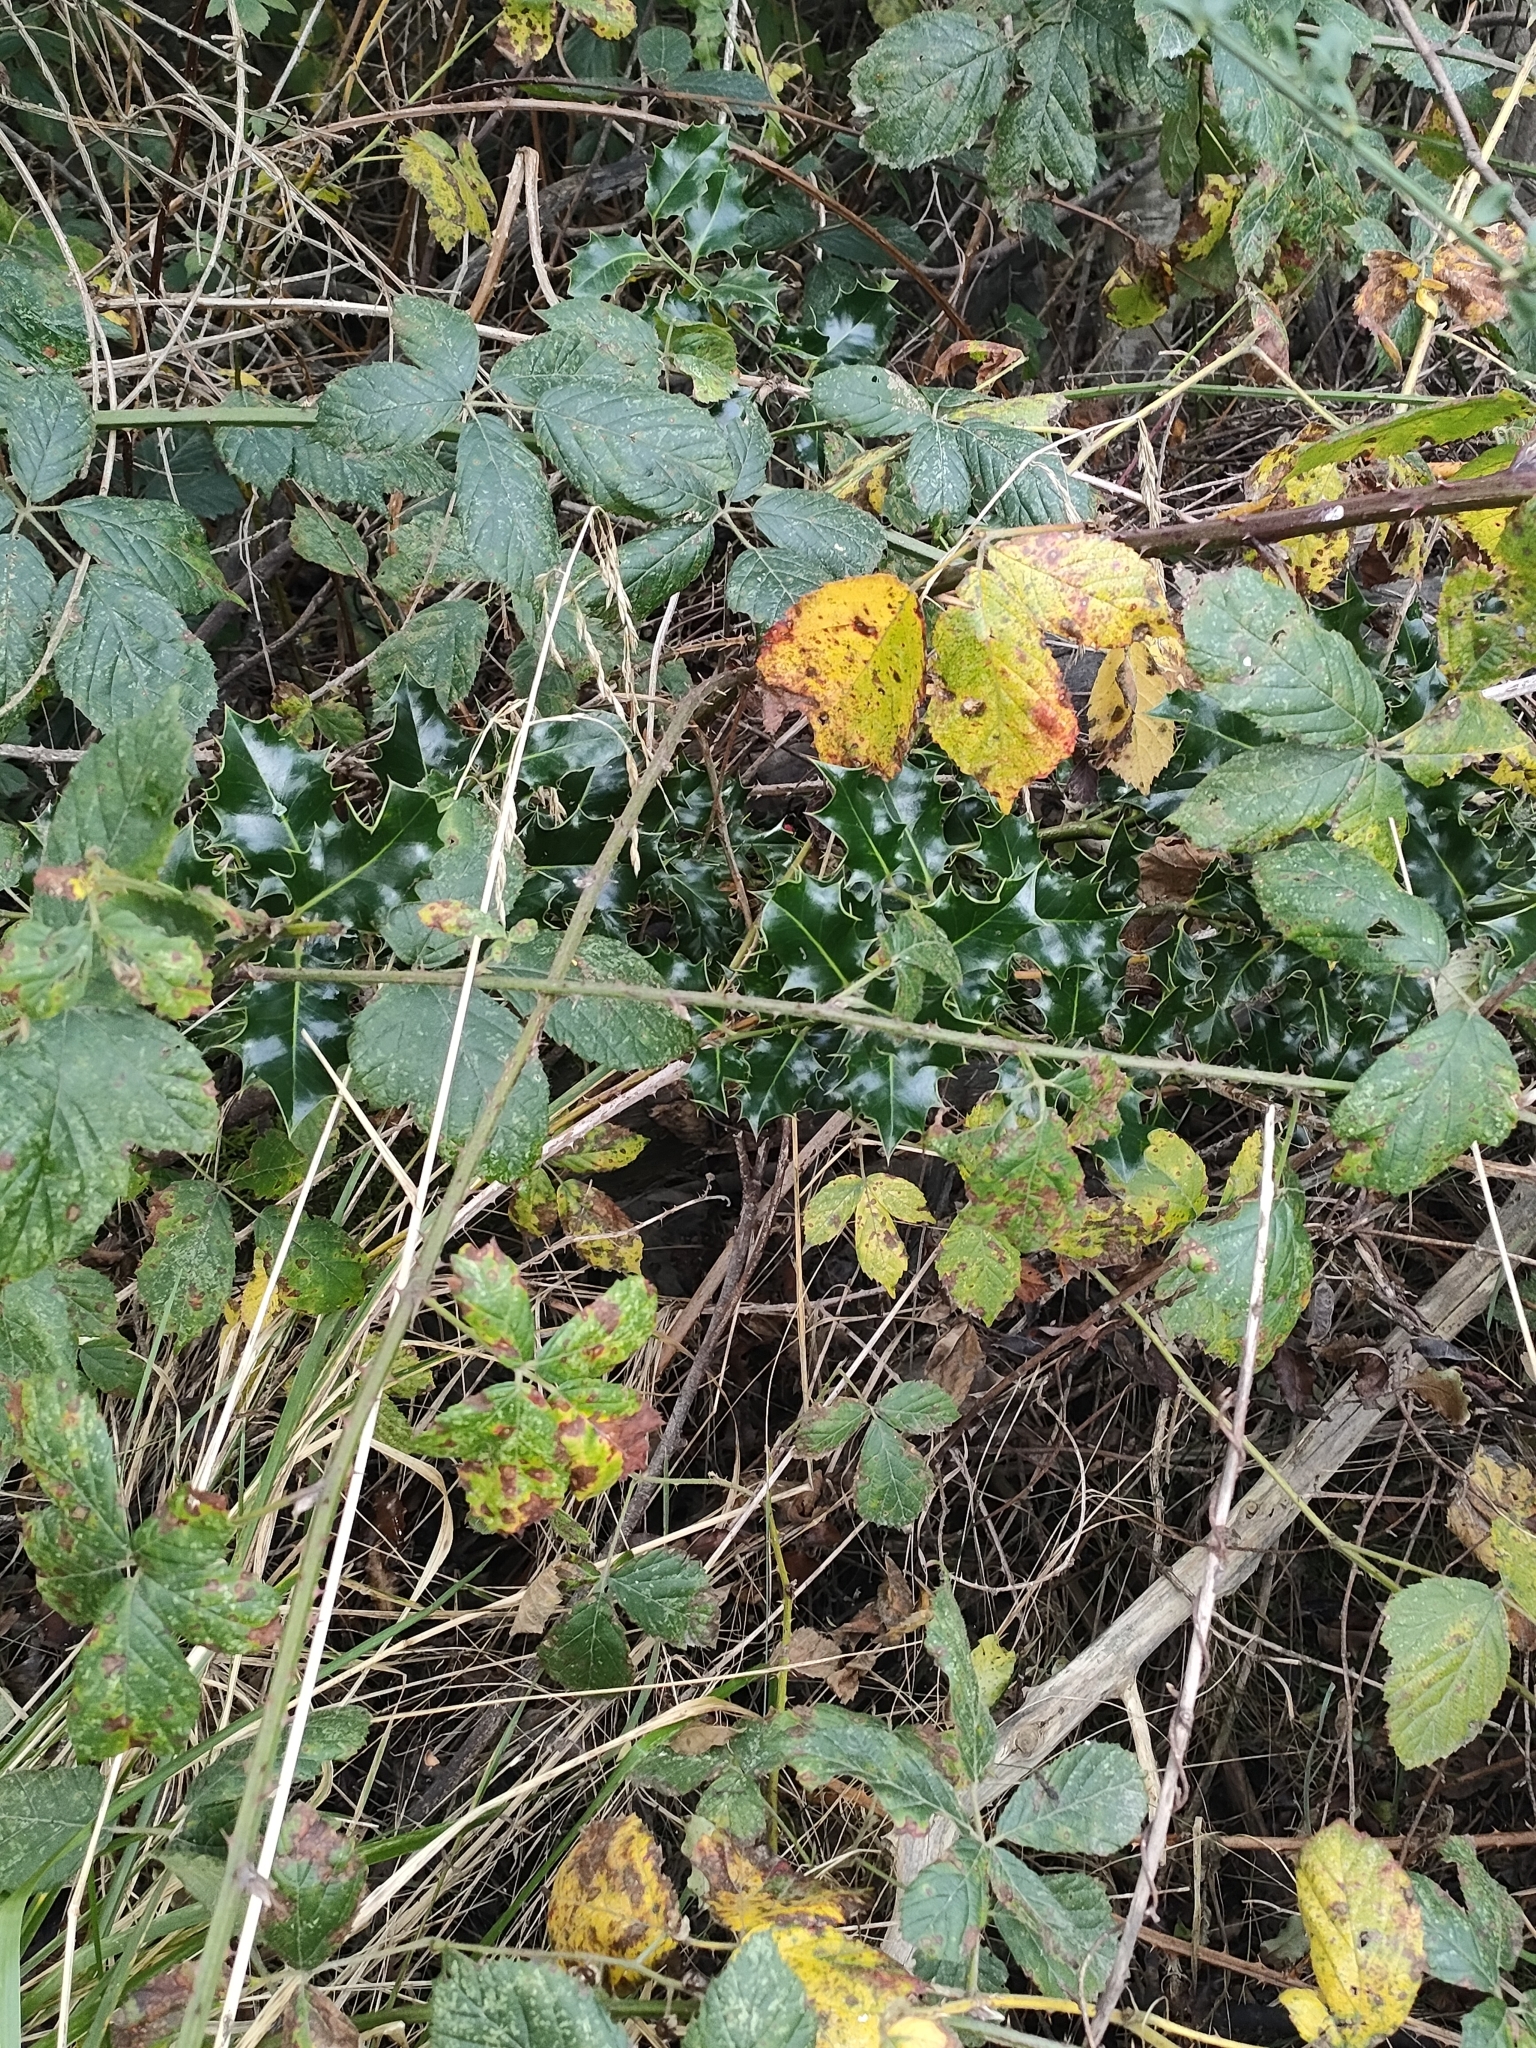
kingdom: Plantae
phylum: Tracheophyta
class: Magnoliopsida
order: Aquifoliales
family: Aquifoliaceae
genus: Ilex
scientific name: Ilex aquifolium
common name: English holly
